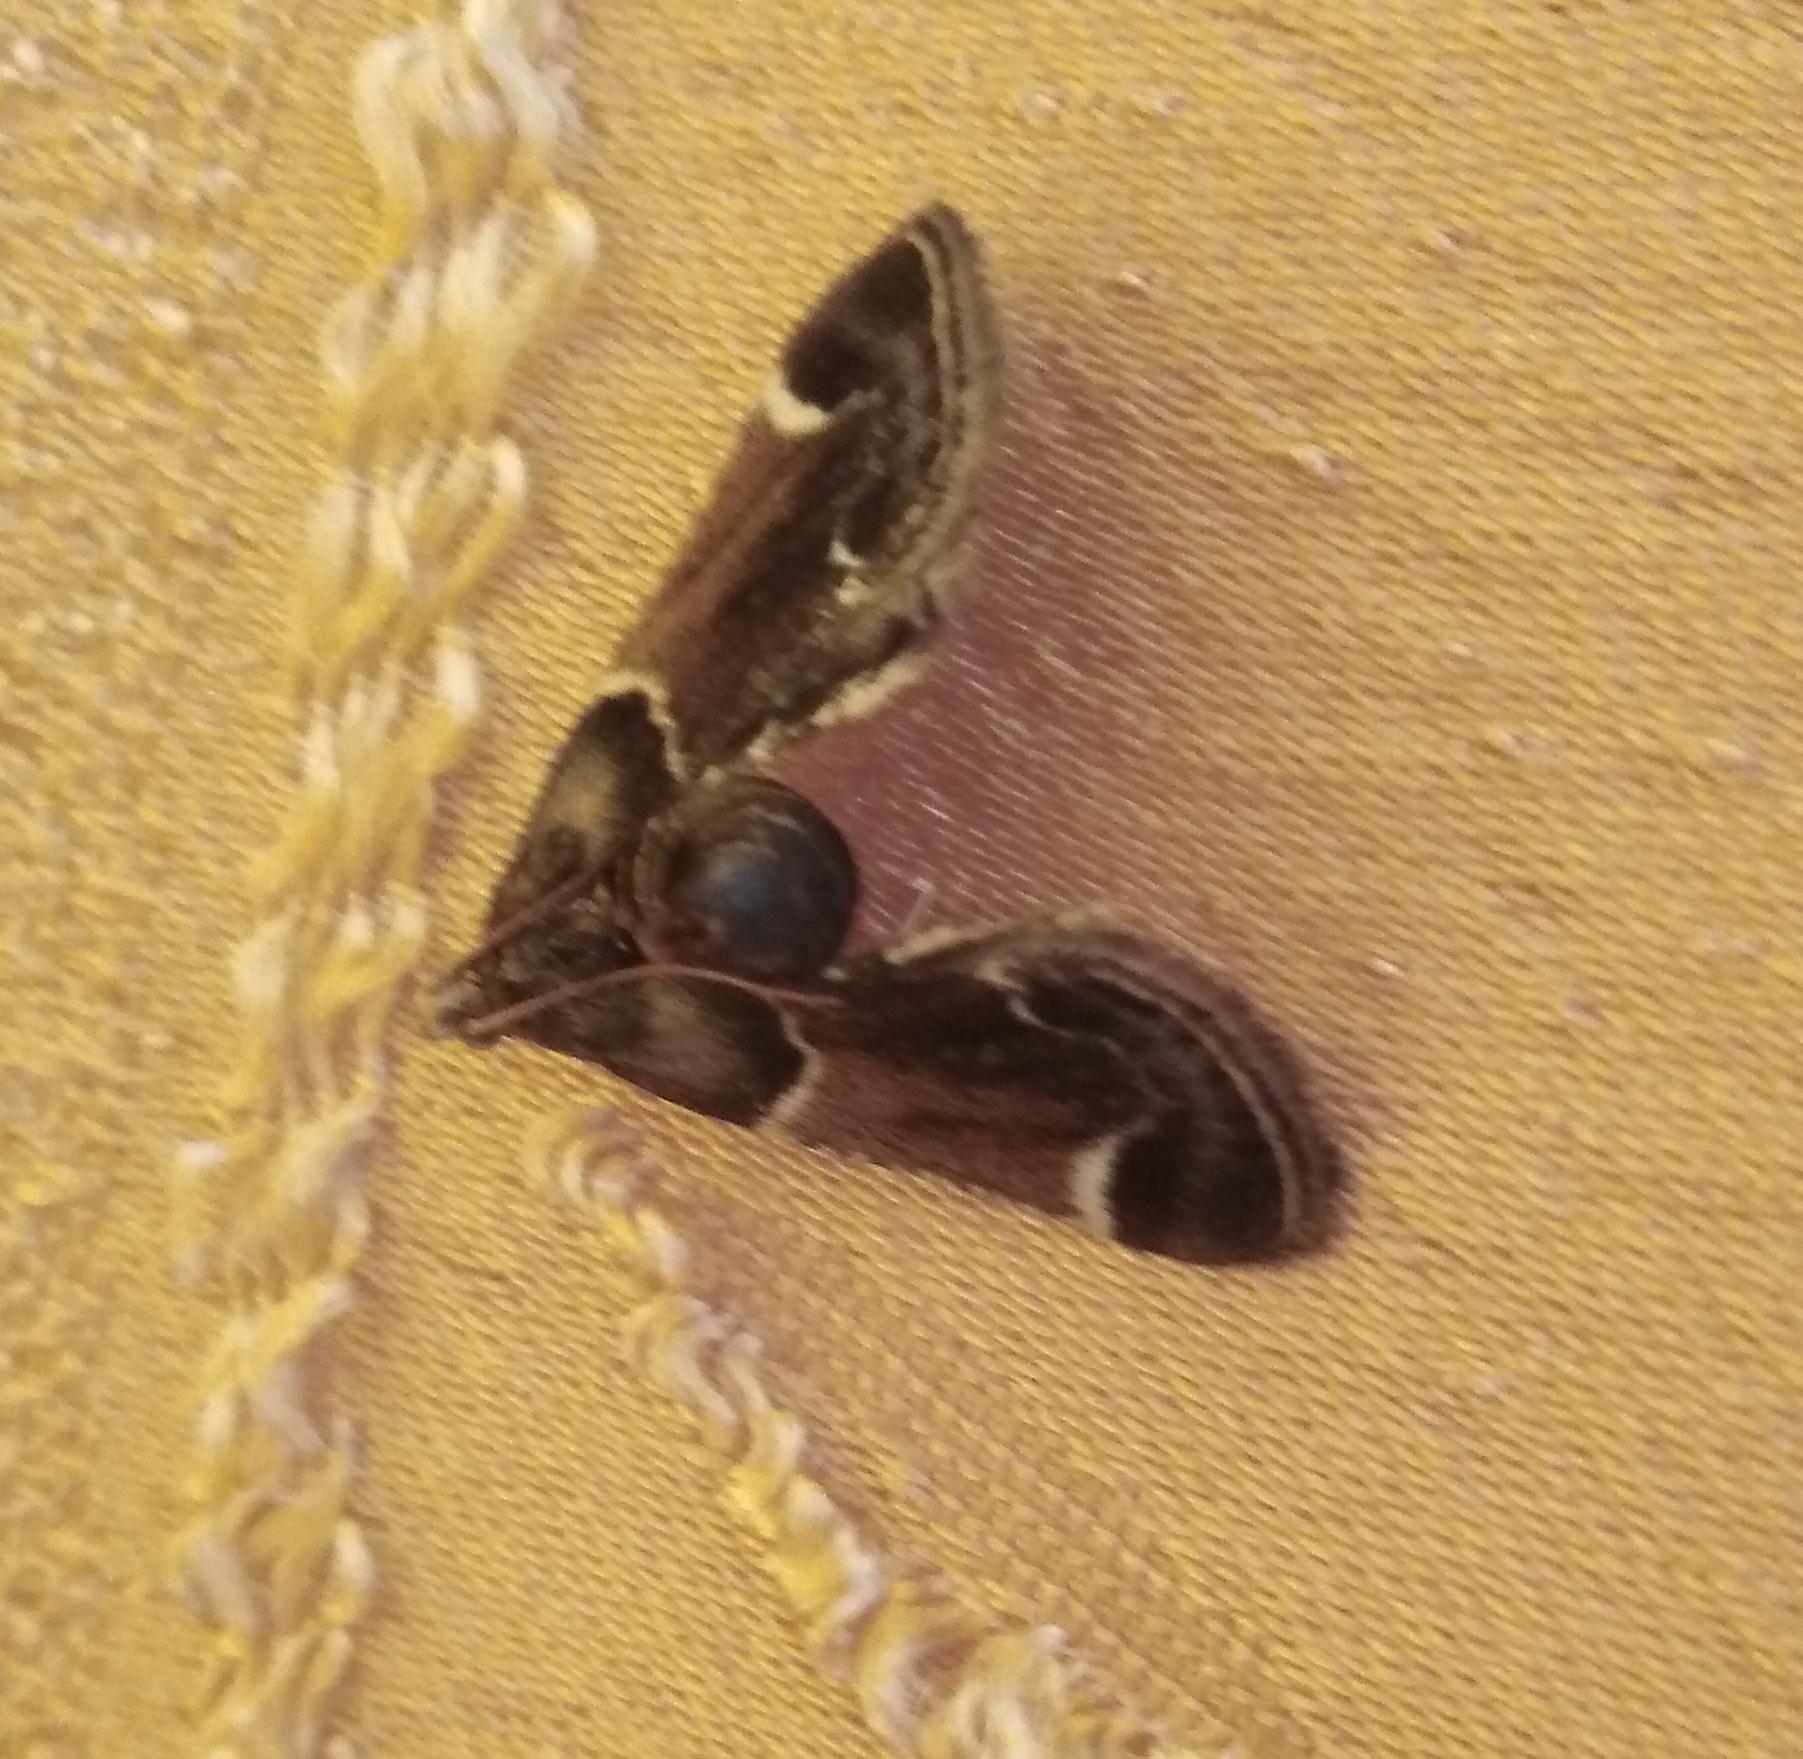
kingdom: Animalia
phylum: Arthropoda
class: Insecta
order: Lepidoptera
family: Pyralidae
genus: Pyralis
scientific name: Pyralis farinalis
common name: Meal moth
